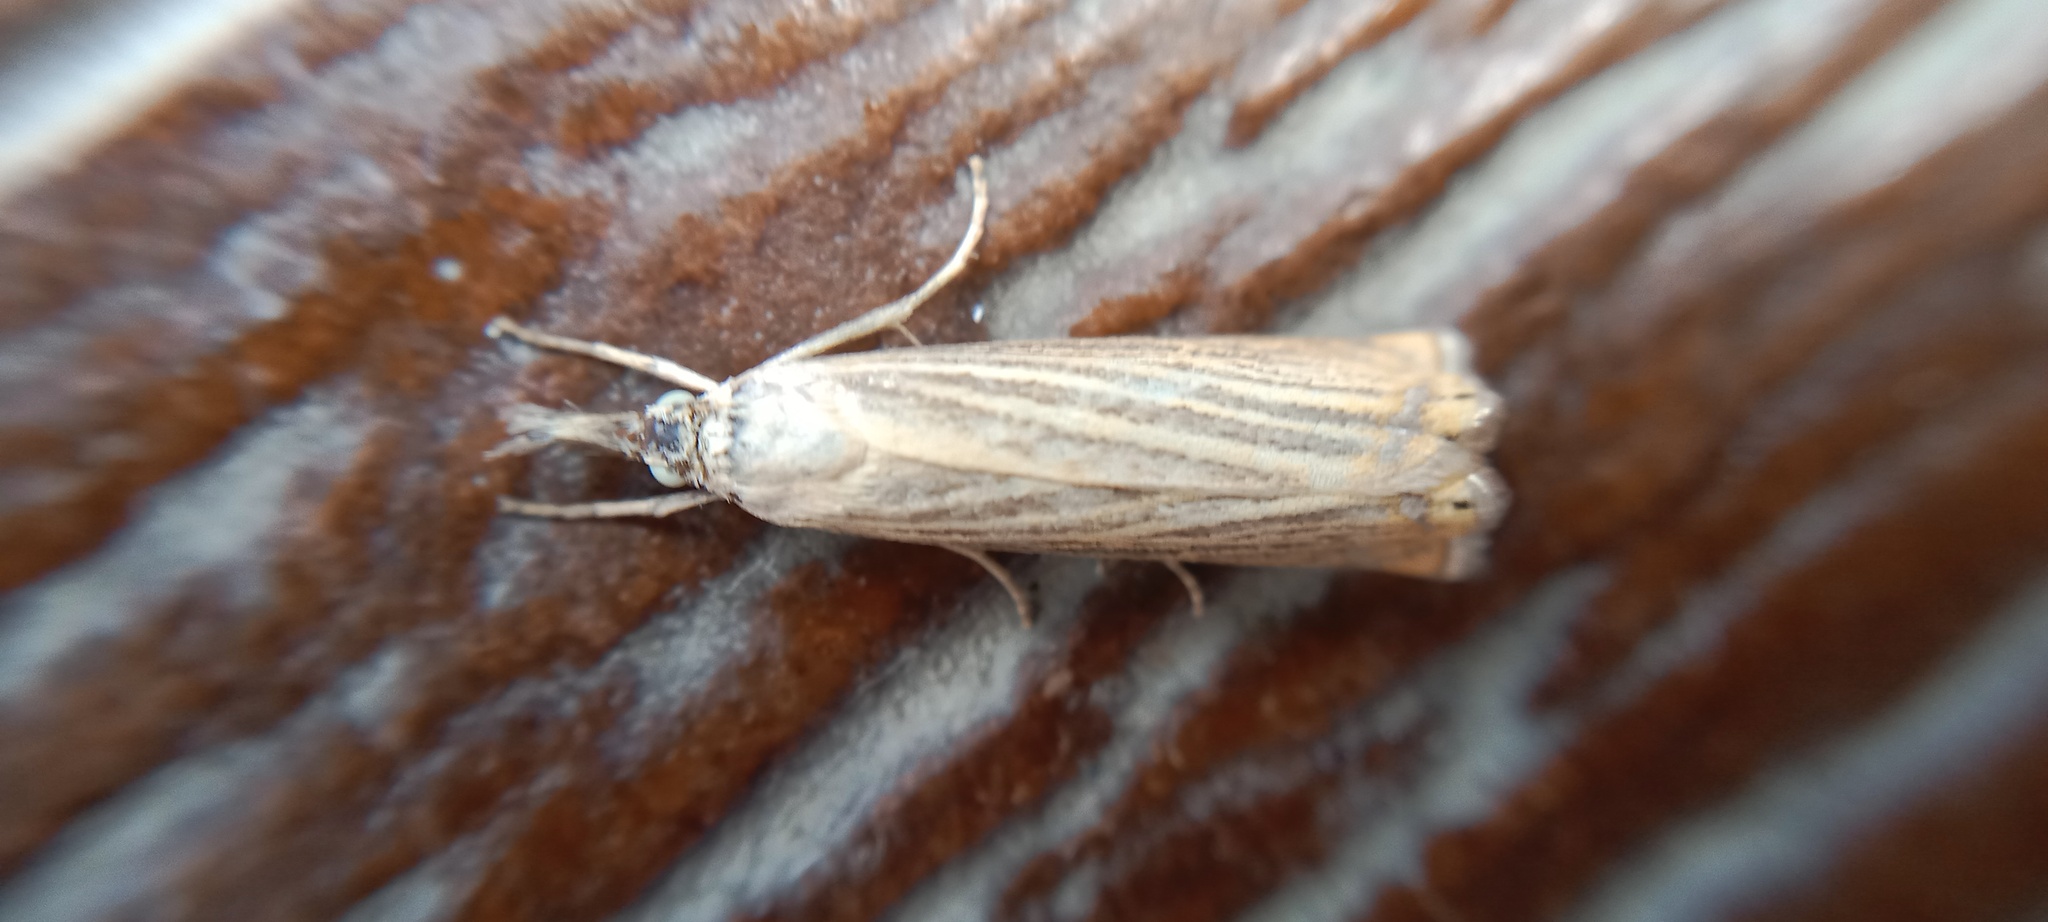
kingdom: Animalia
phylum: Arthropoda
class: Insecta
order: Lepidoptera
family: Crambidae
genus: Chrysoteuchia
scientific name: Chrysoteuchia culmella
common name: Garden grass-veneer
